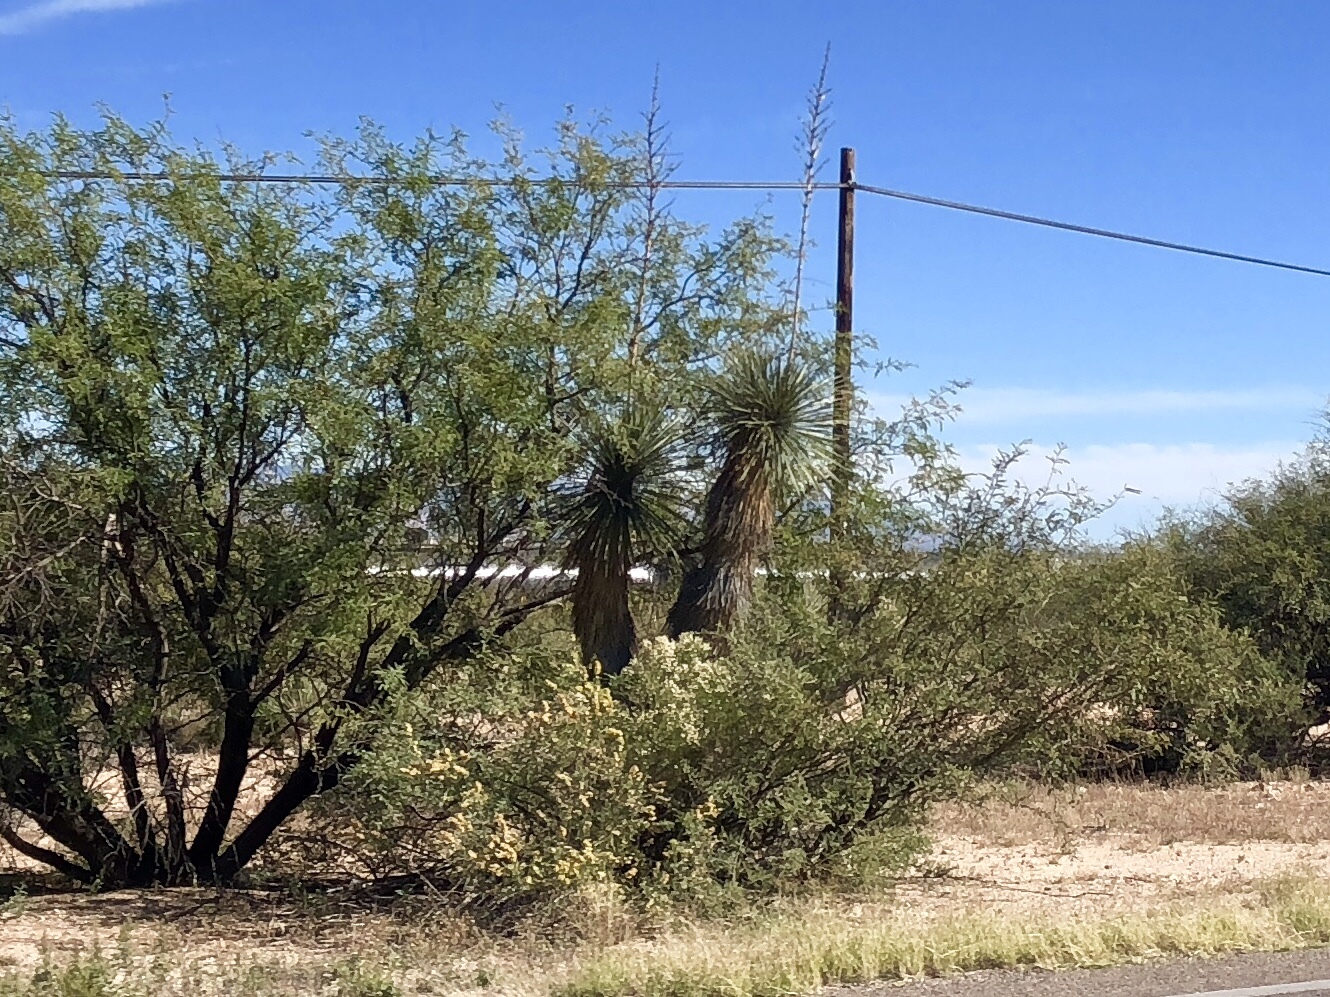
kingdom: Plantae
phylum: Tracheophyta
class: Liliopsida
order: Asparagales
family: Asparagaceae
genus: Yucca
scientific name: Yucca elata
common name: Palmella
